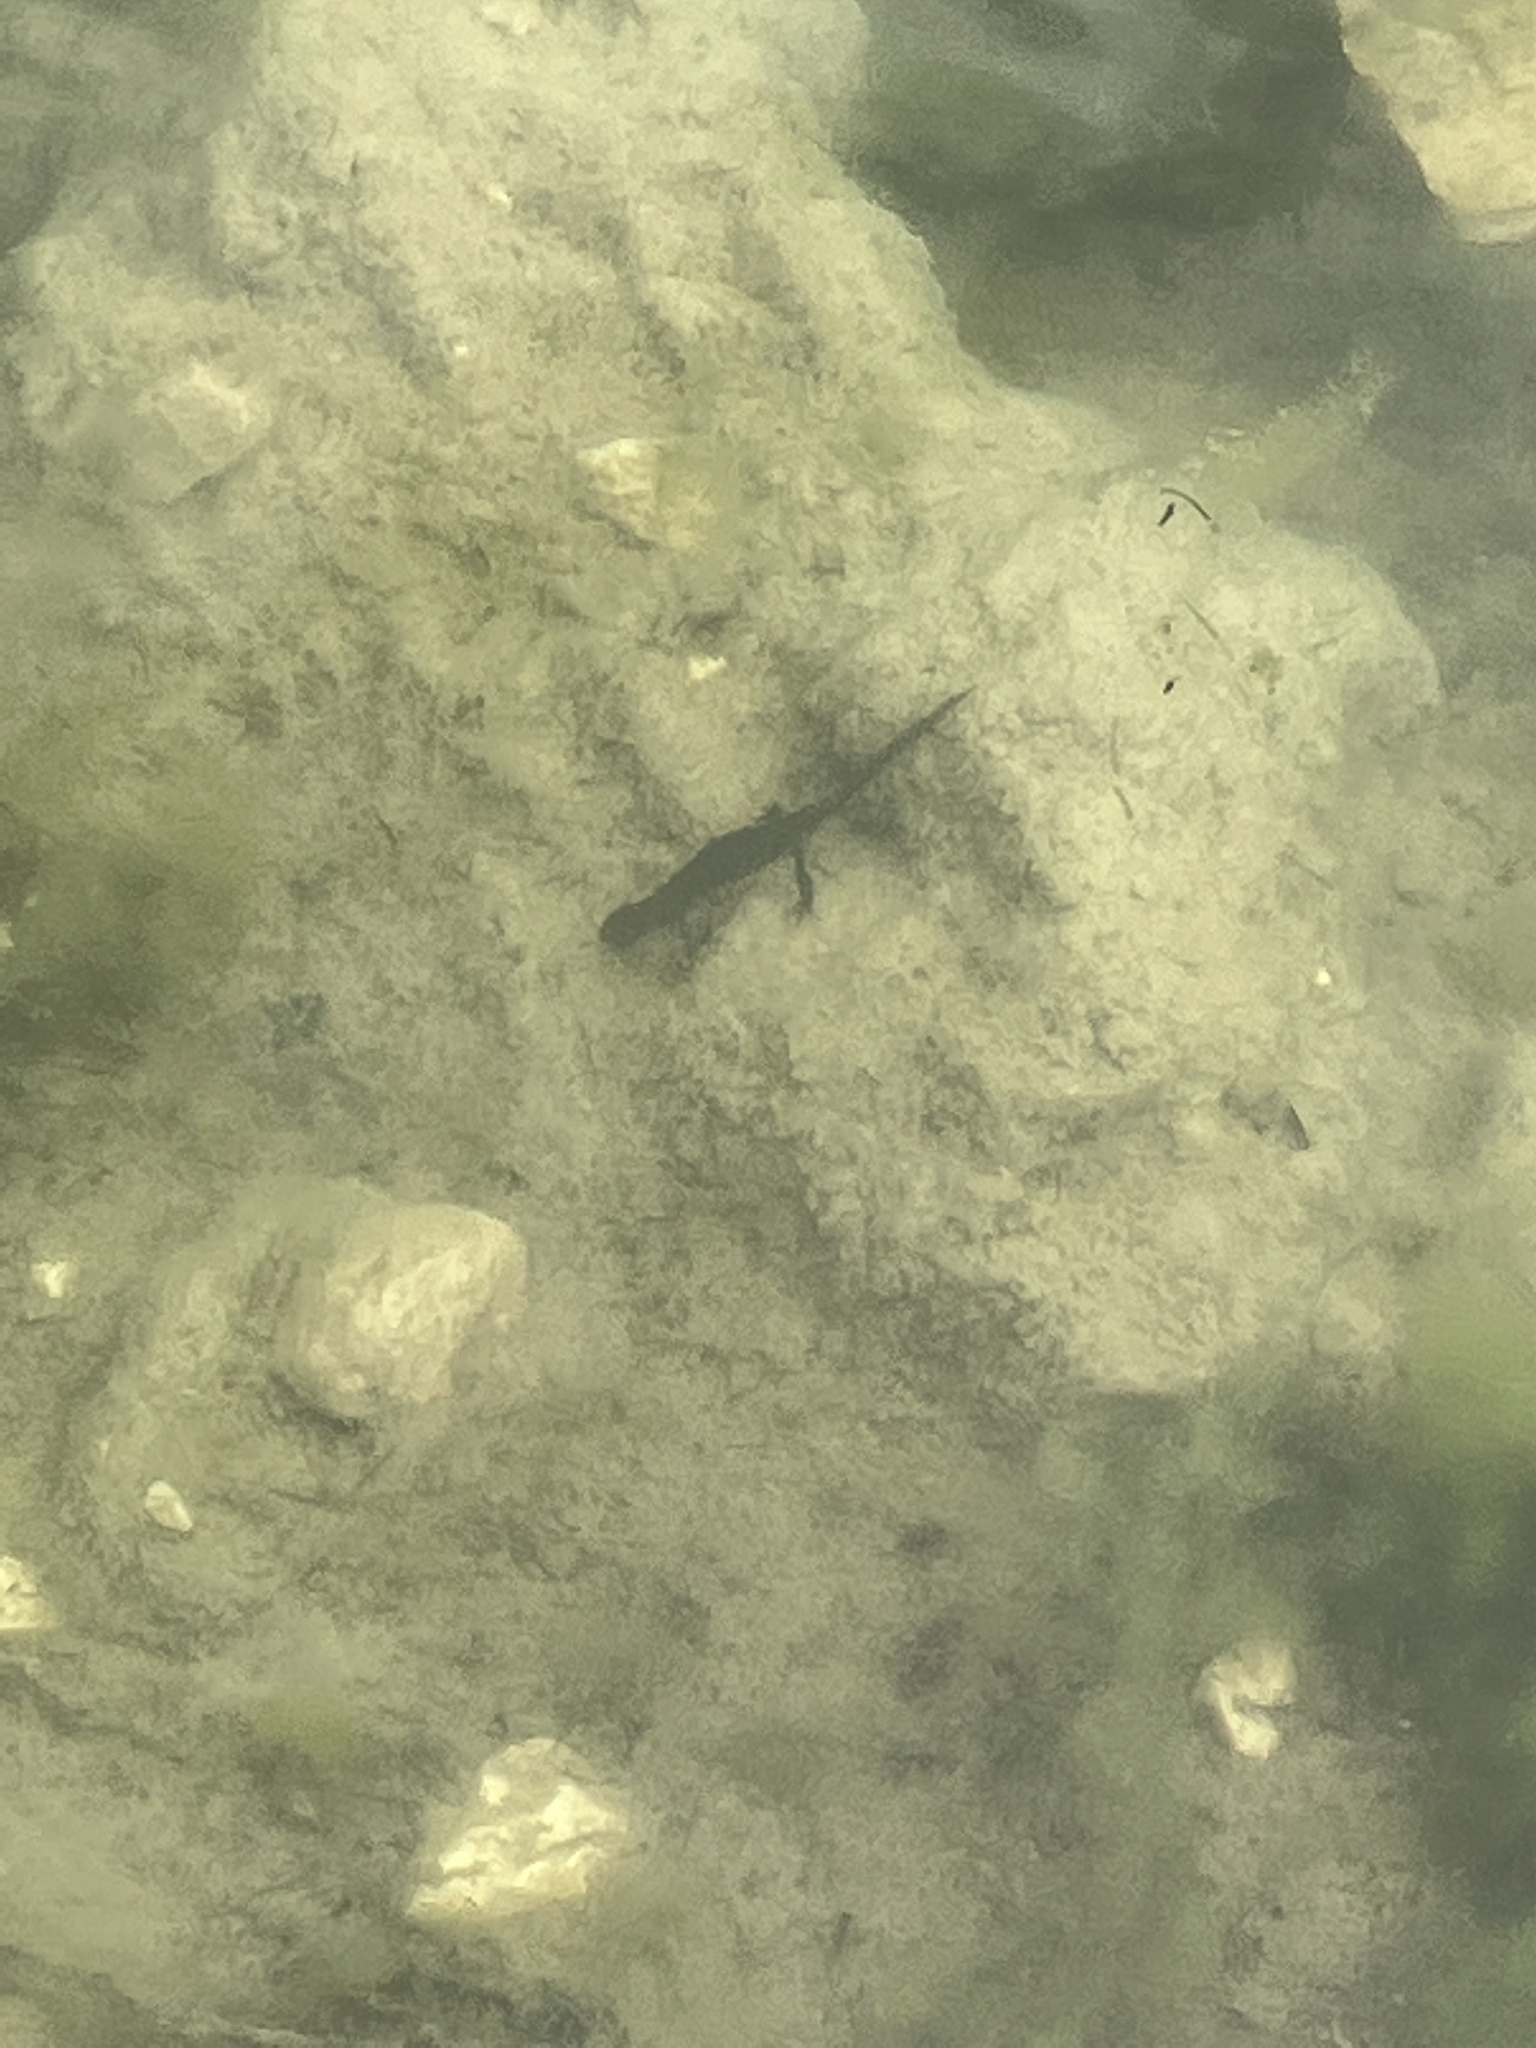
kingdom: Animalia
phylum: Chordata
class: Amphibia
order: Caudata
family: Salamandridae
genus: Ichthyosaura
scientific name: Ichthyosaura alpestris
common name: Alpine newt
